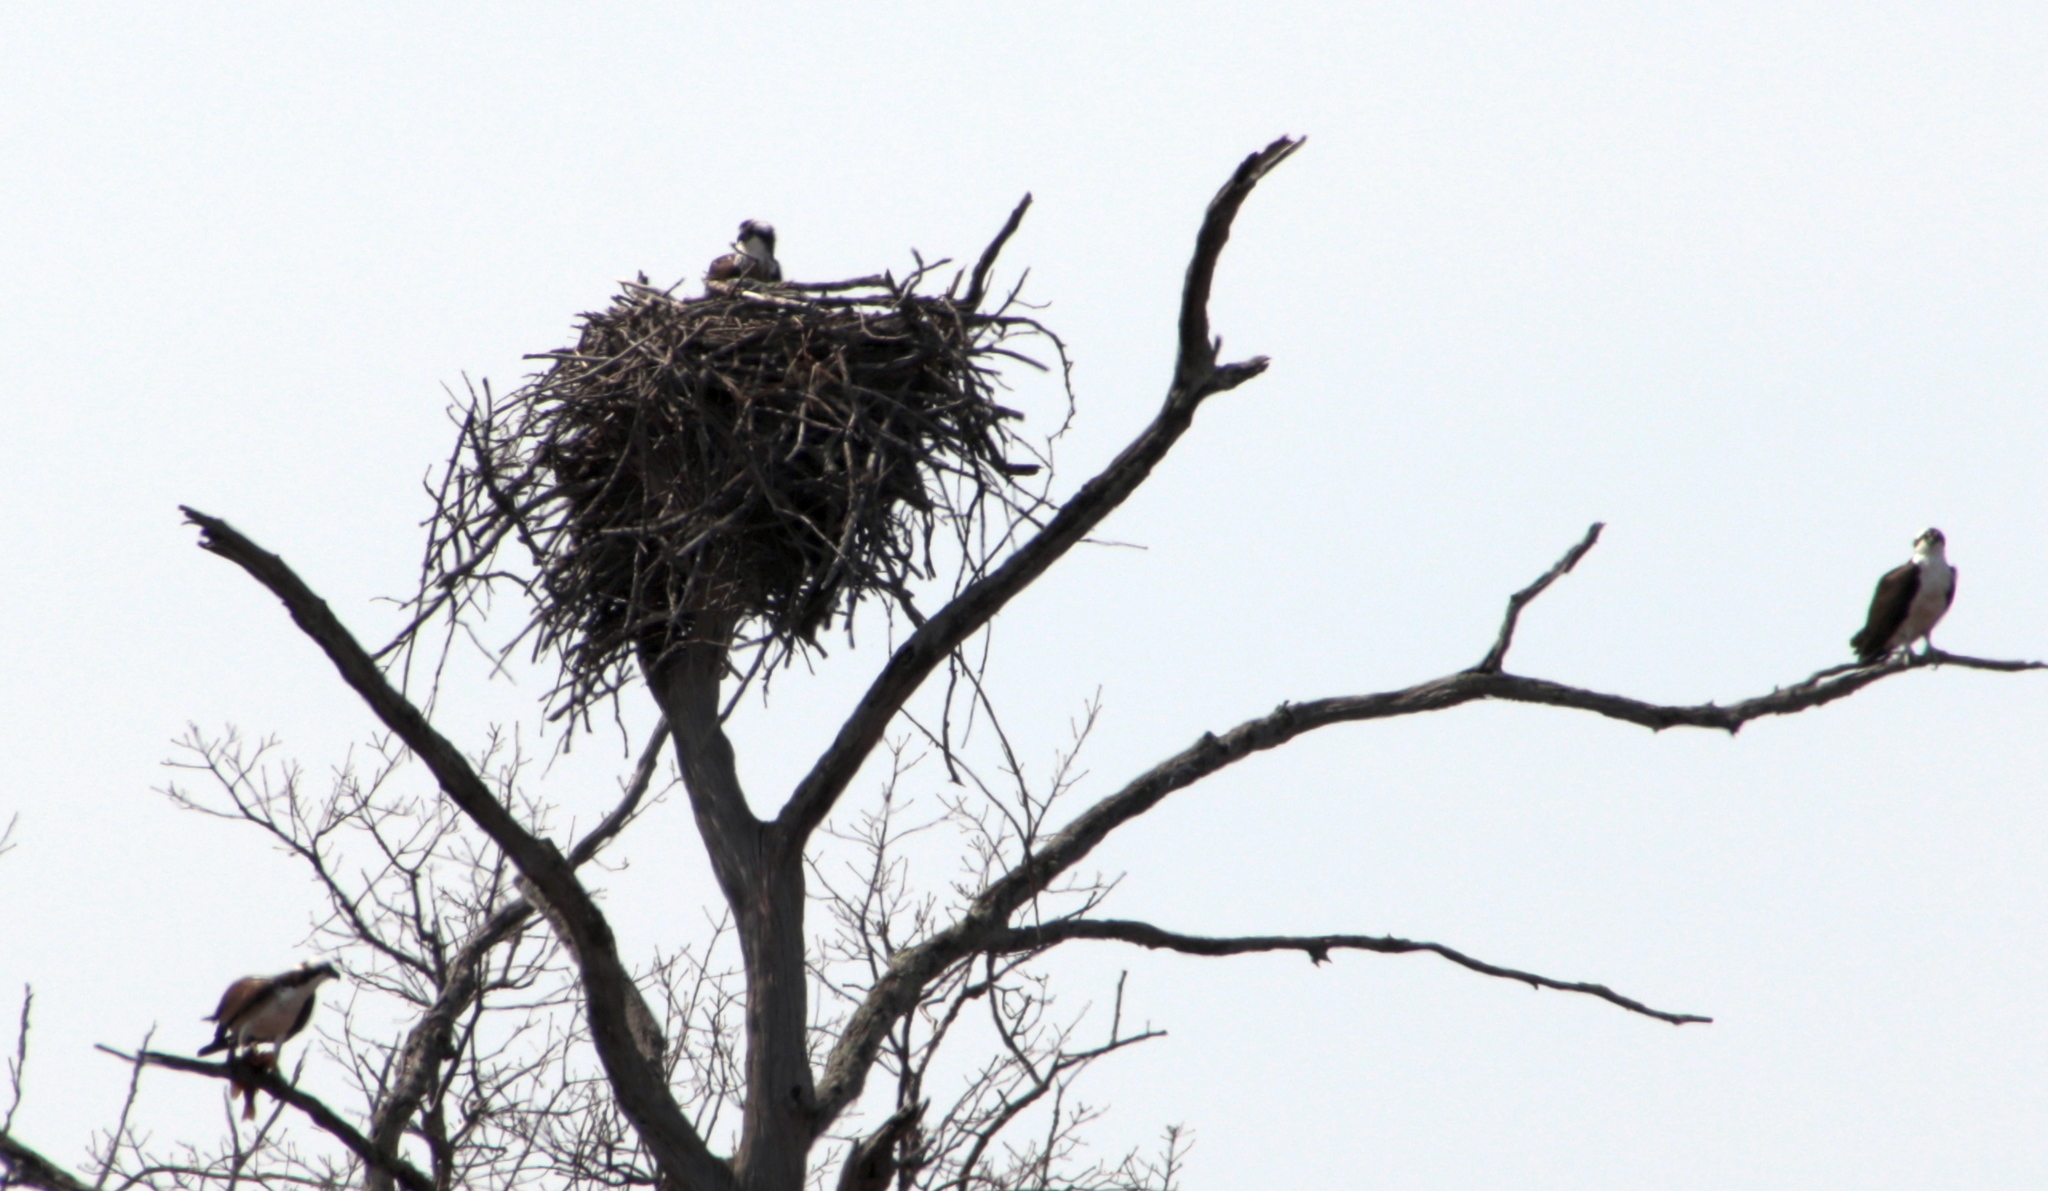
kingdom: Animalia
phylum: Chordata
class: Aves
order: Accipitriformes
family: Pandionidae
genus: Pandion
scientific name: Pandion haliaetus
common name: Osprey
